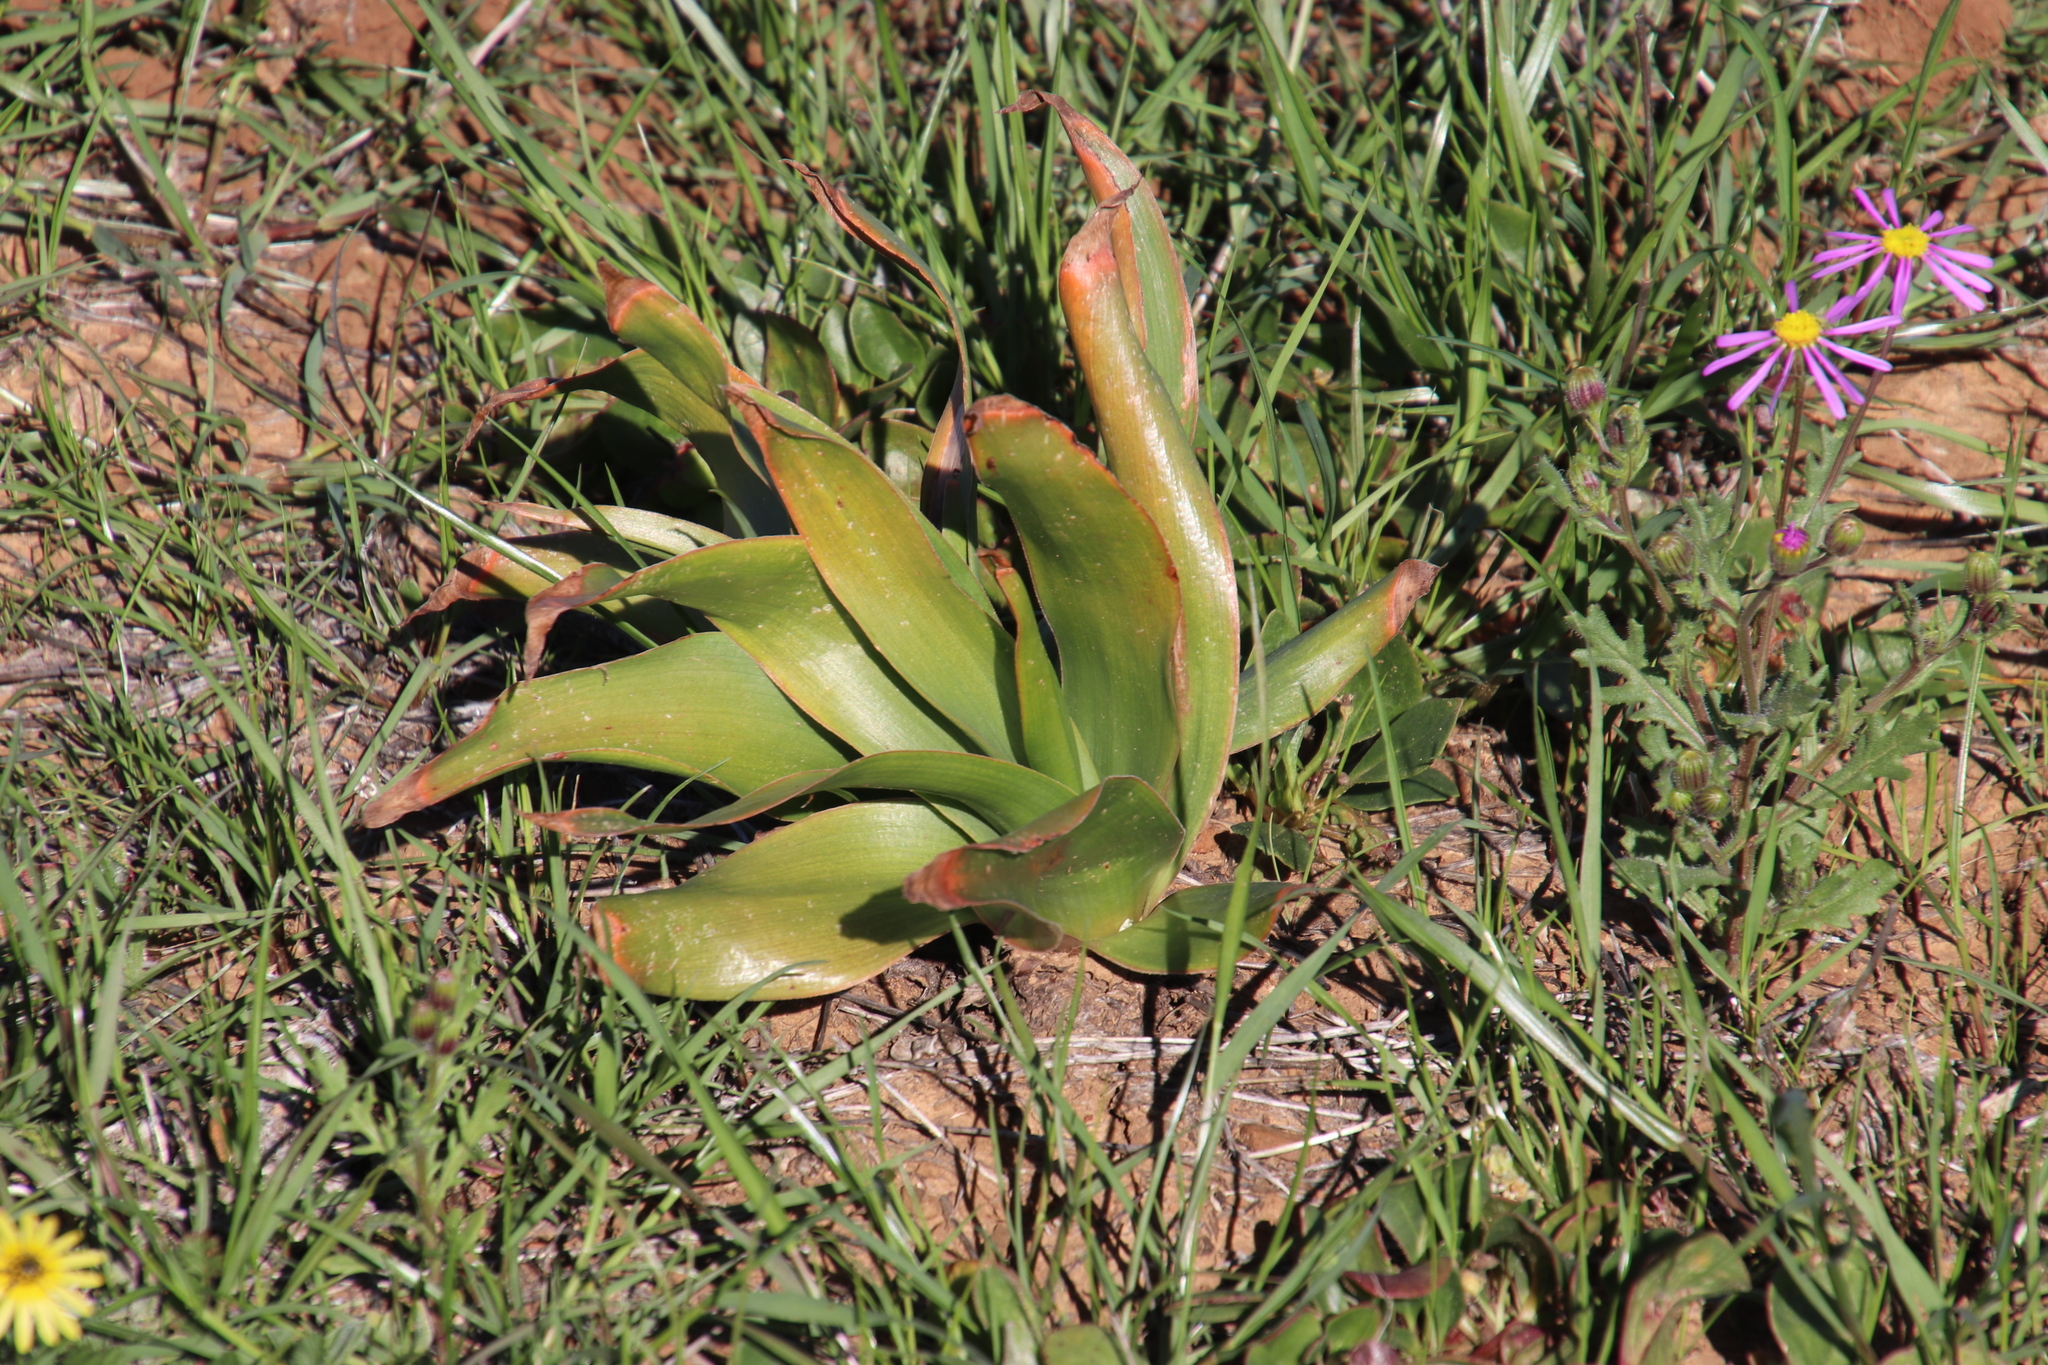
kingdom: Plantae
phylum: Tracheophyta
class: Liliopsida
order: Asparagales
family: Asphodelaceae
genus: Bulbine
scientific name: Bulbine alooides
